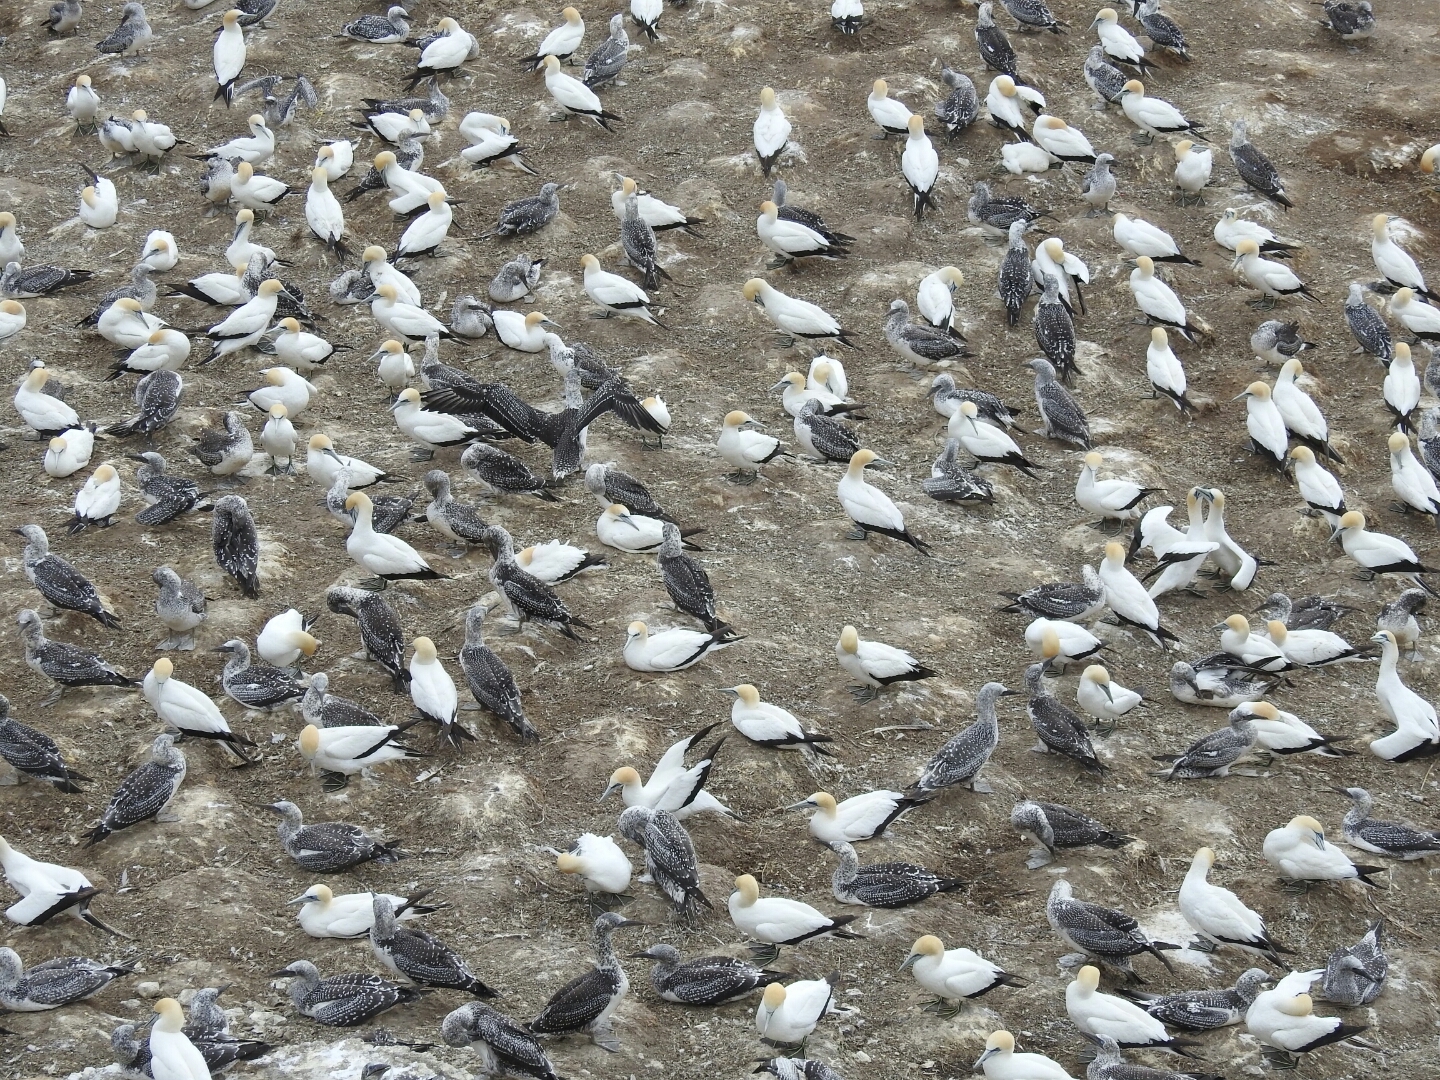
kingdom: Animalia
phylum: Chordata
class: Aves
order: Suliformes
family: Sulidae
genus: Morus
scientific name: Morus serrator
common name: Australasian gannet
